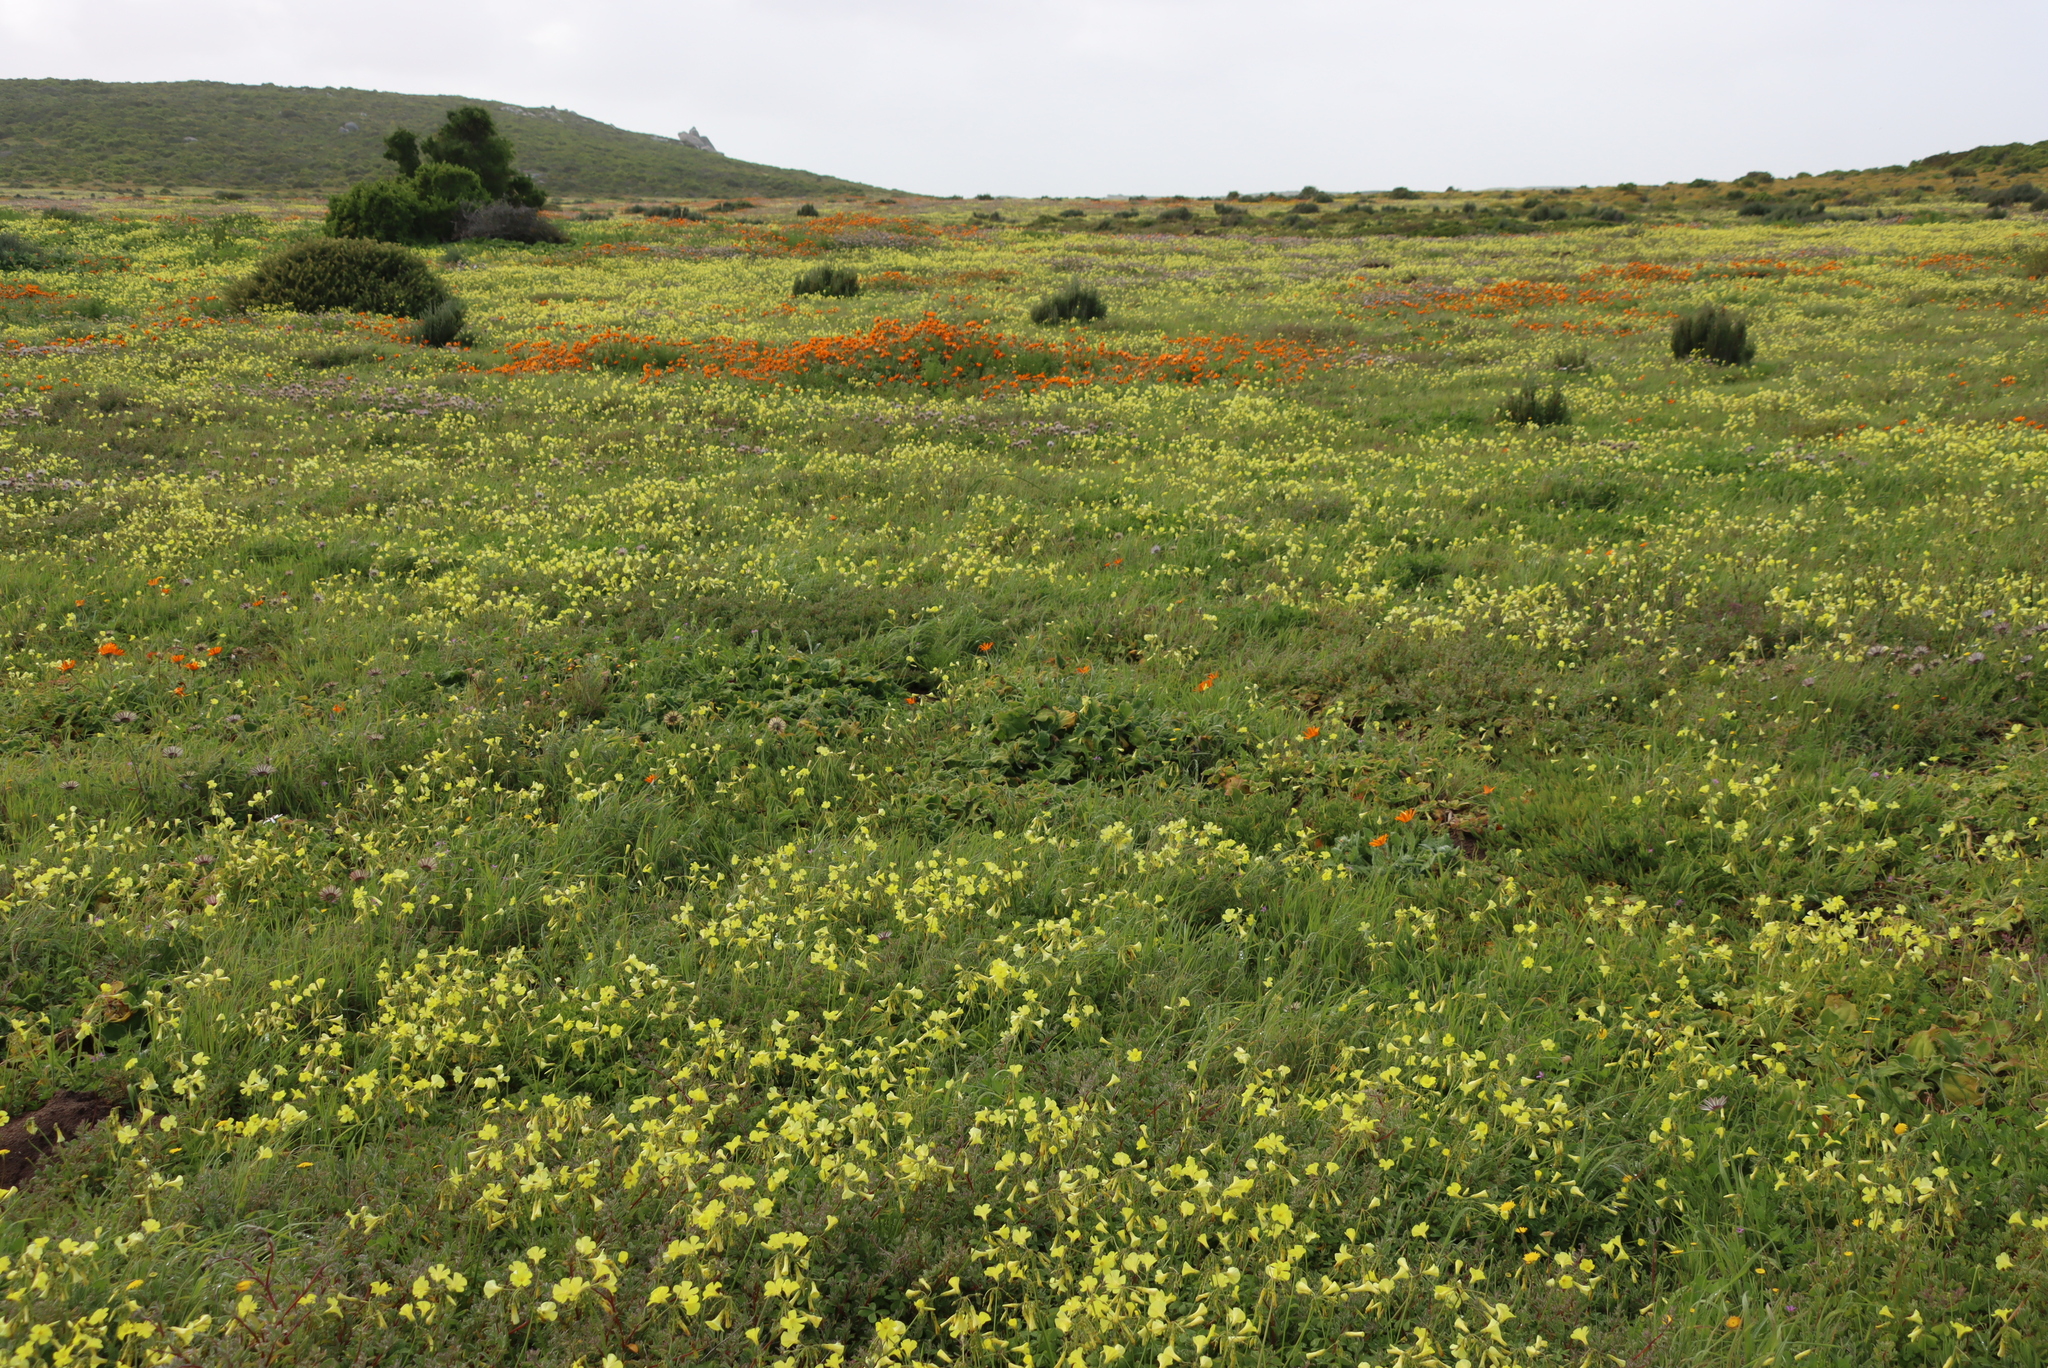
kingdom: Plantae
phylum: Tracheophyta
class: Magnoliopsida
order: Oxalidales
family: Oxalidaceae
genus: Oxalis
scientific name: Oxalis pes-caprae
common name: Bermuda-buttercup
